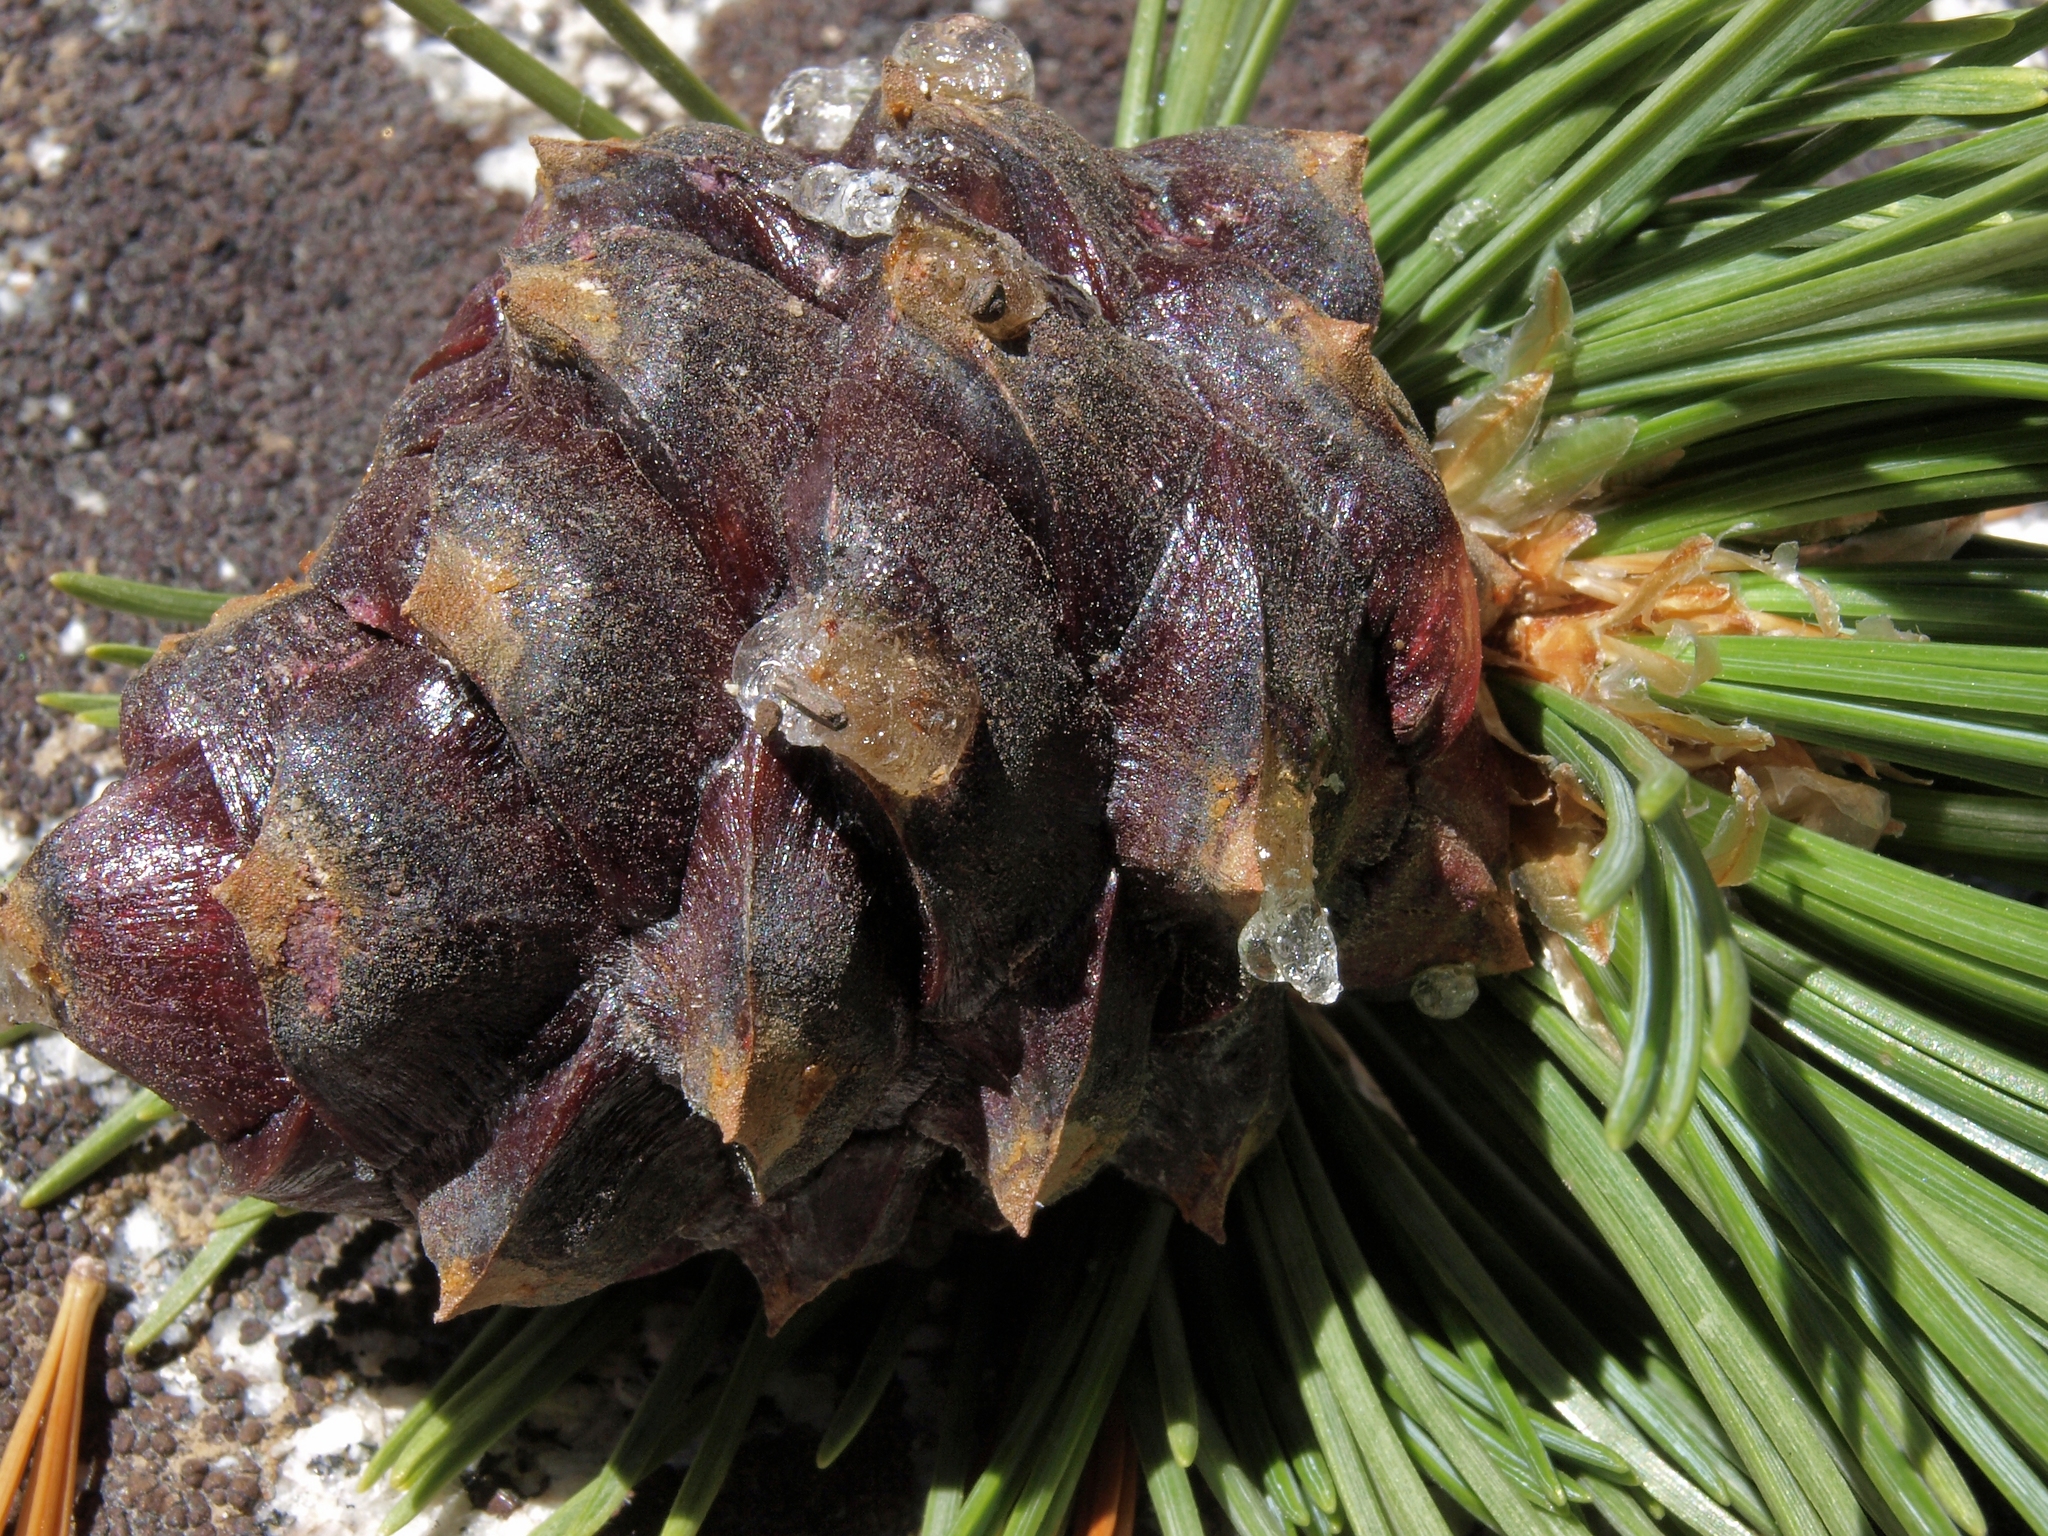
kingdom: Plantae
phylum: Tracheophyta
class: Pinopsida
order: Pinales
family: Pinaceae
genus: Pinus
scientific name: Pinus albicaulis
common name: Whitebark pine
